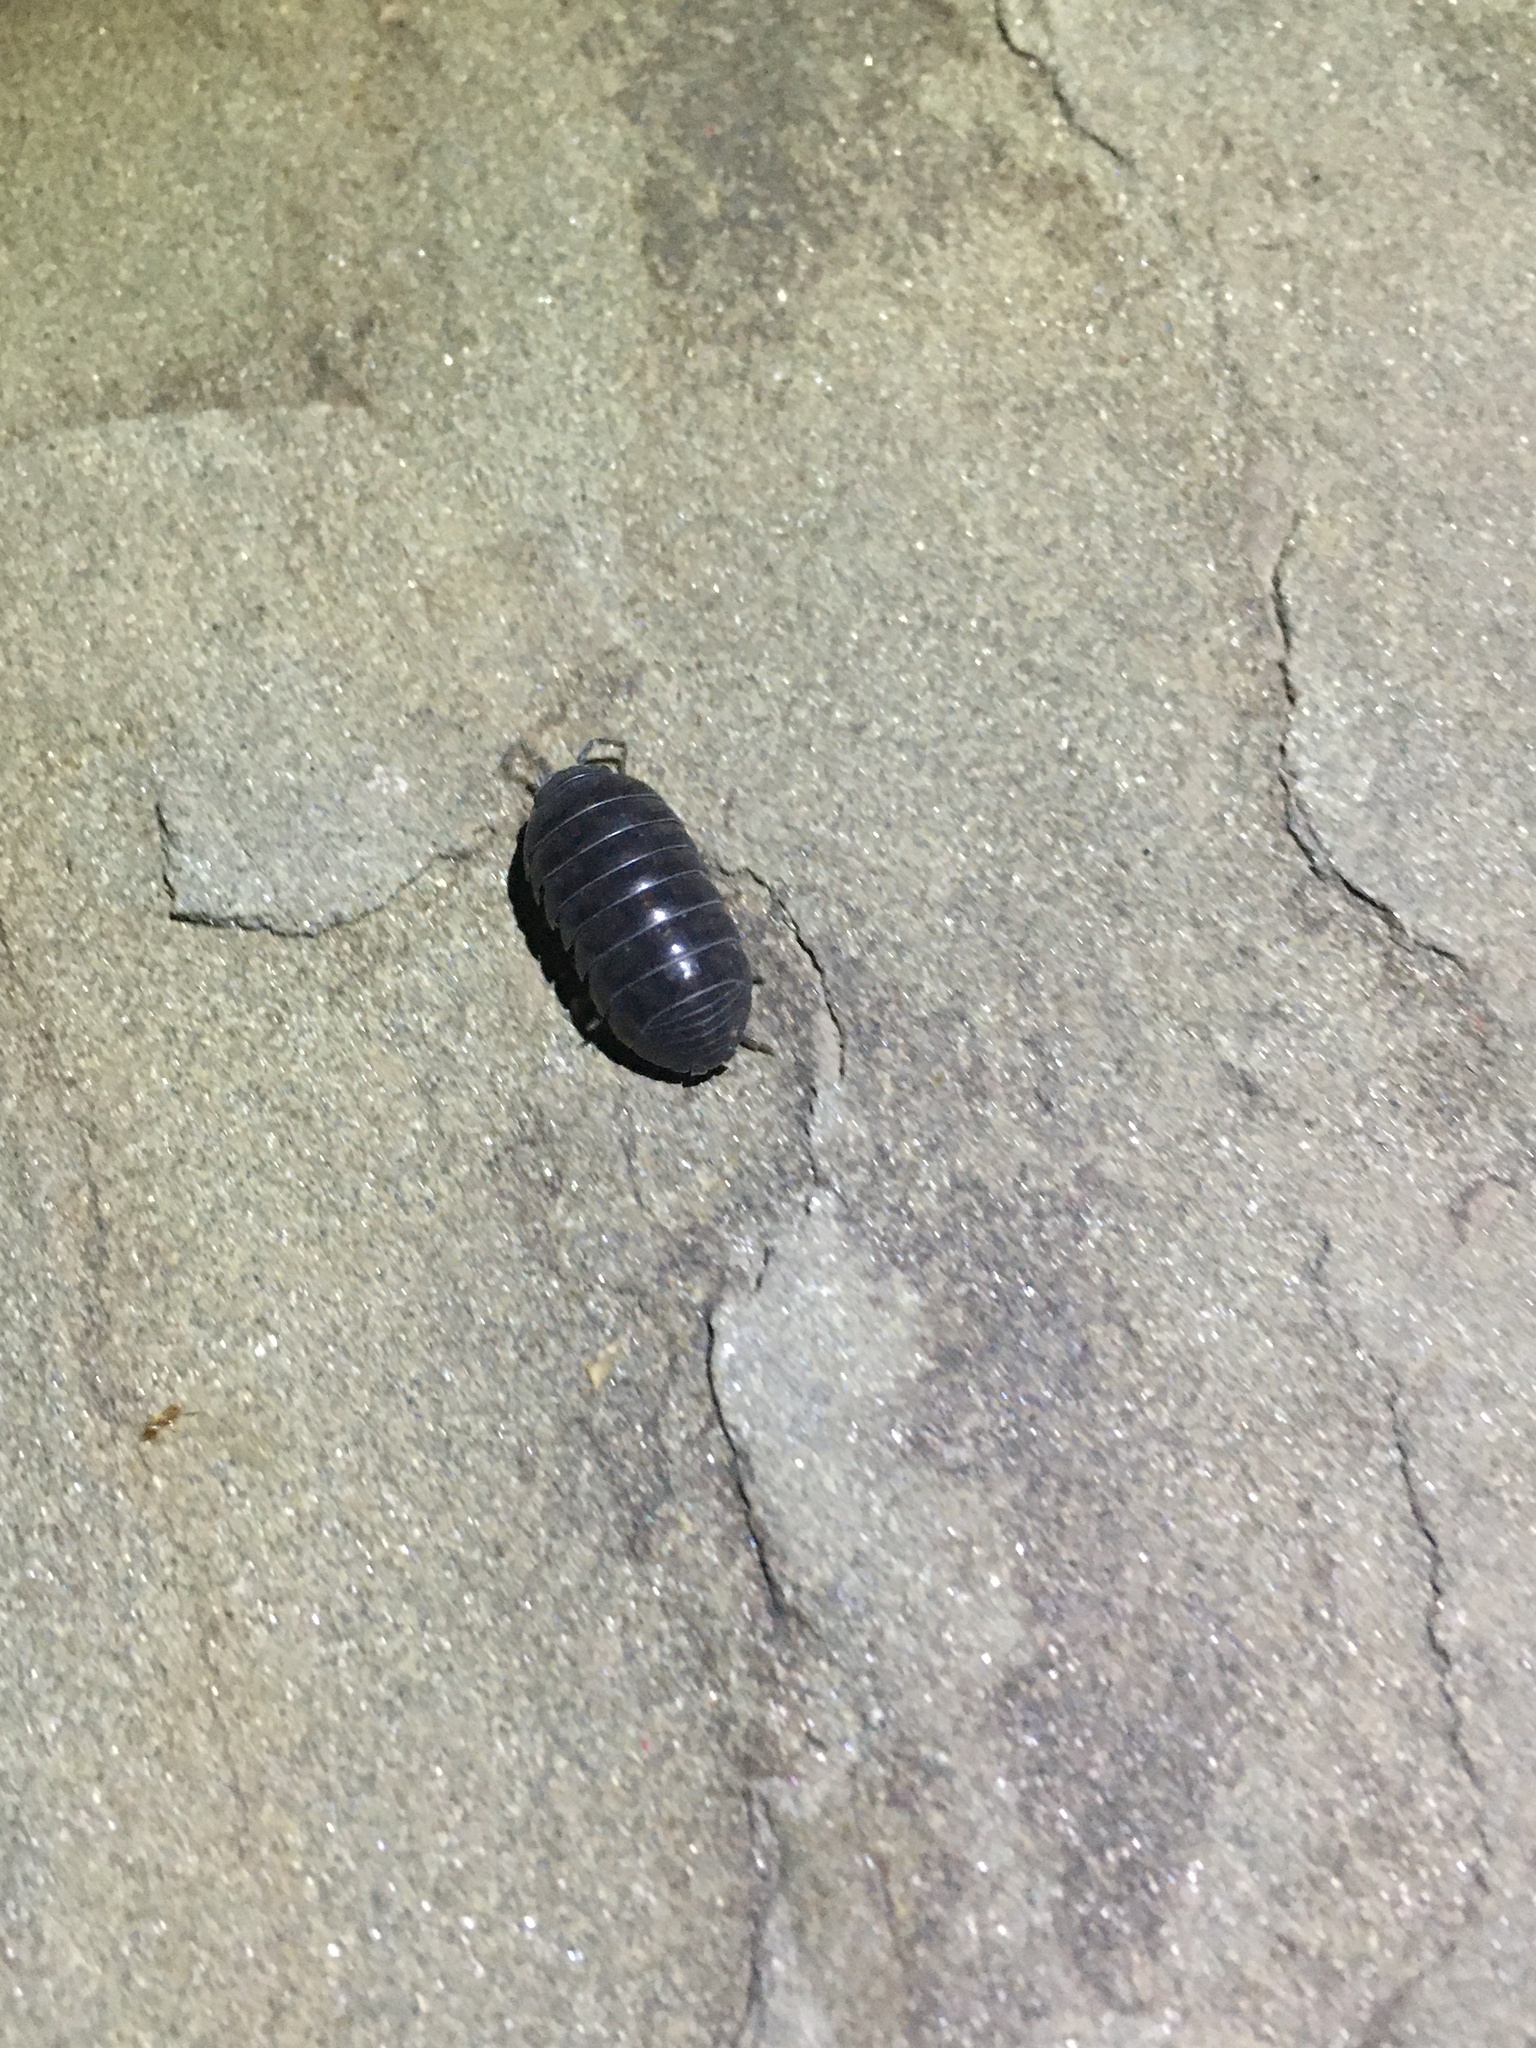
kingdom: Animalia
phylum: Arthropoda
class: Malacostraca
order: Isopoda
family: Armadillidiidae
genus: Armadillidium
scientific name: Armadillidium vulgare
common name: Common pill woodlouse
